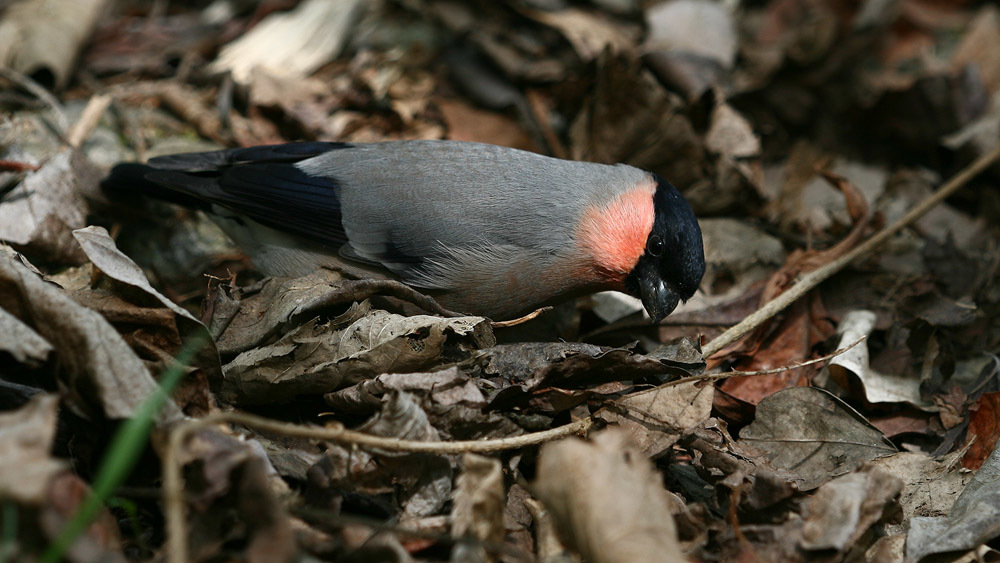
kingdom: Animalia
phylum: Chordata
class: Aves
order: Passeriformes
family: Fringillidae
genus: Pyrrhula
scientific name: Pyrrhula pyrrhula
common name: Eurasian bullfinch
